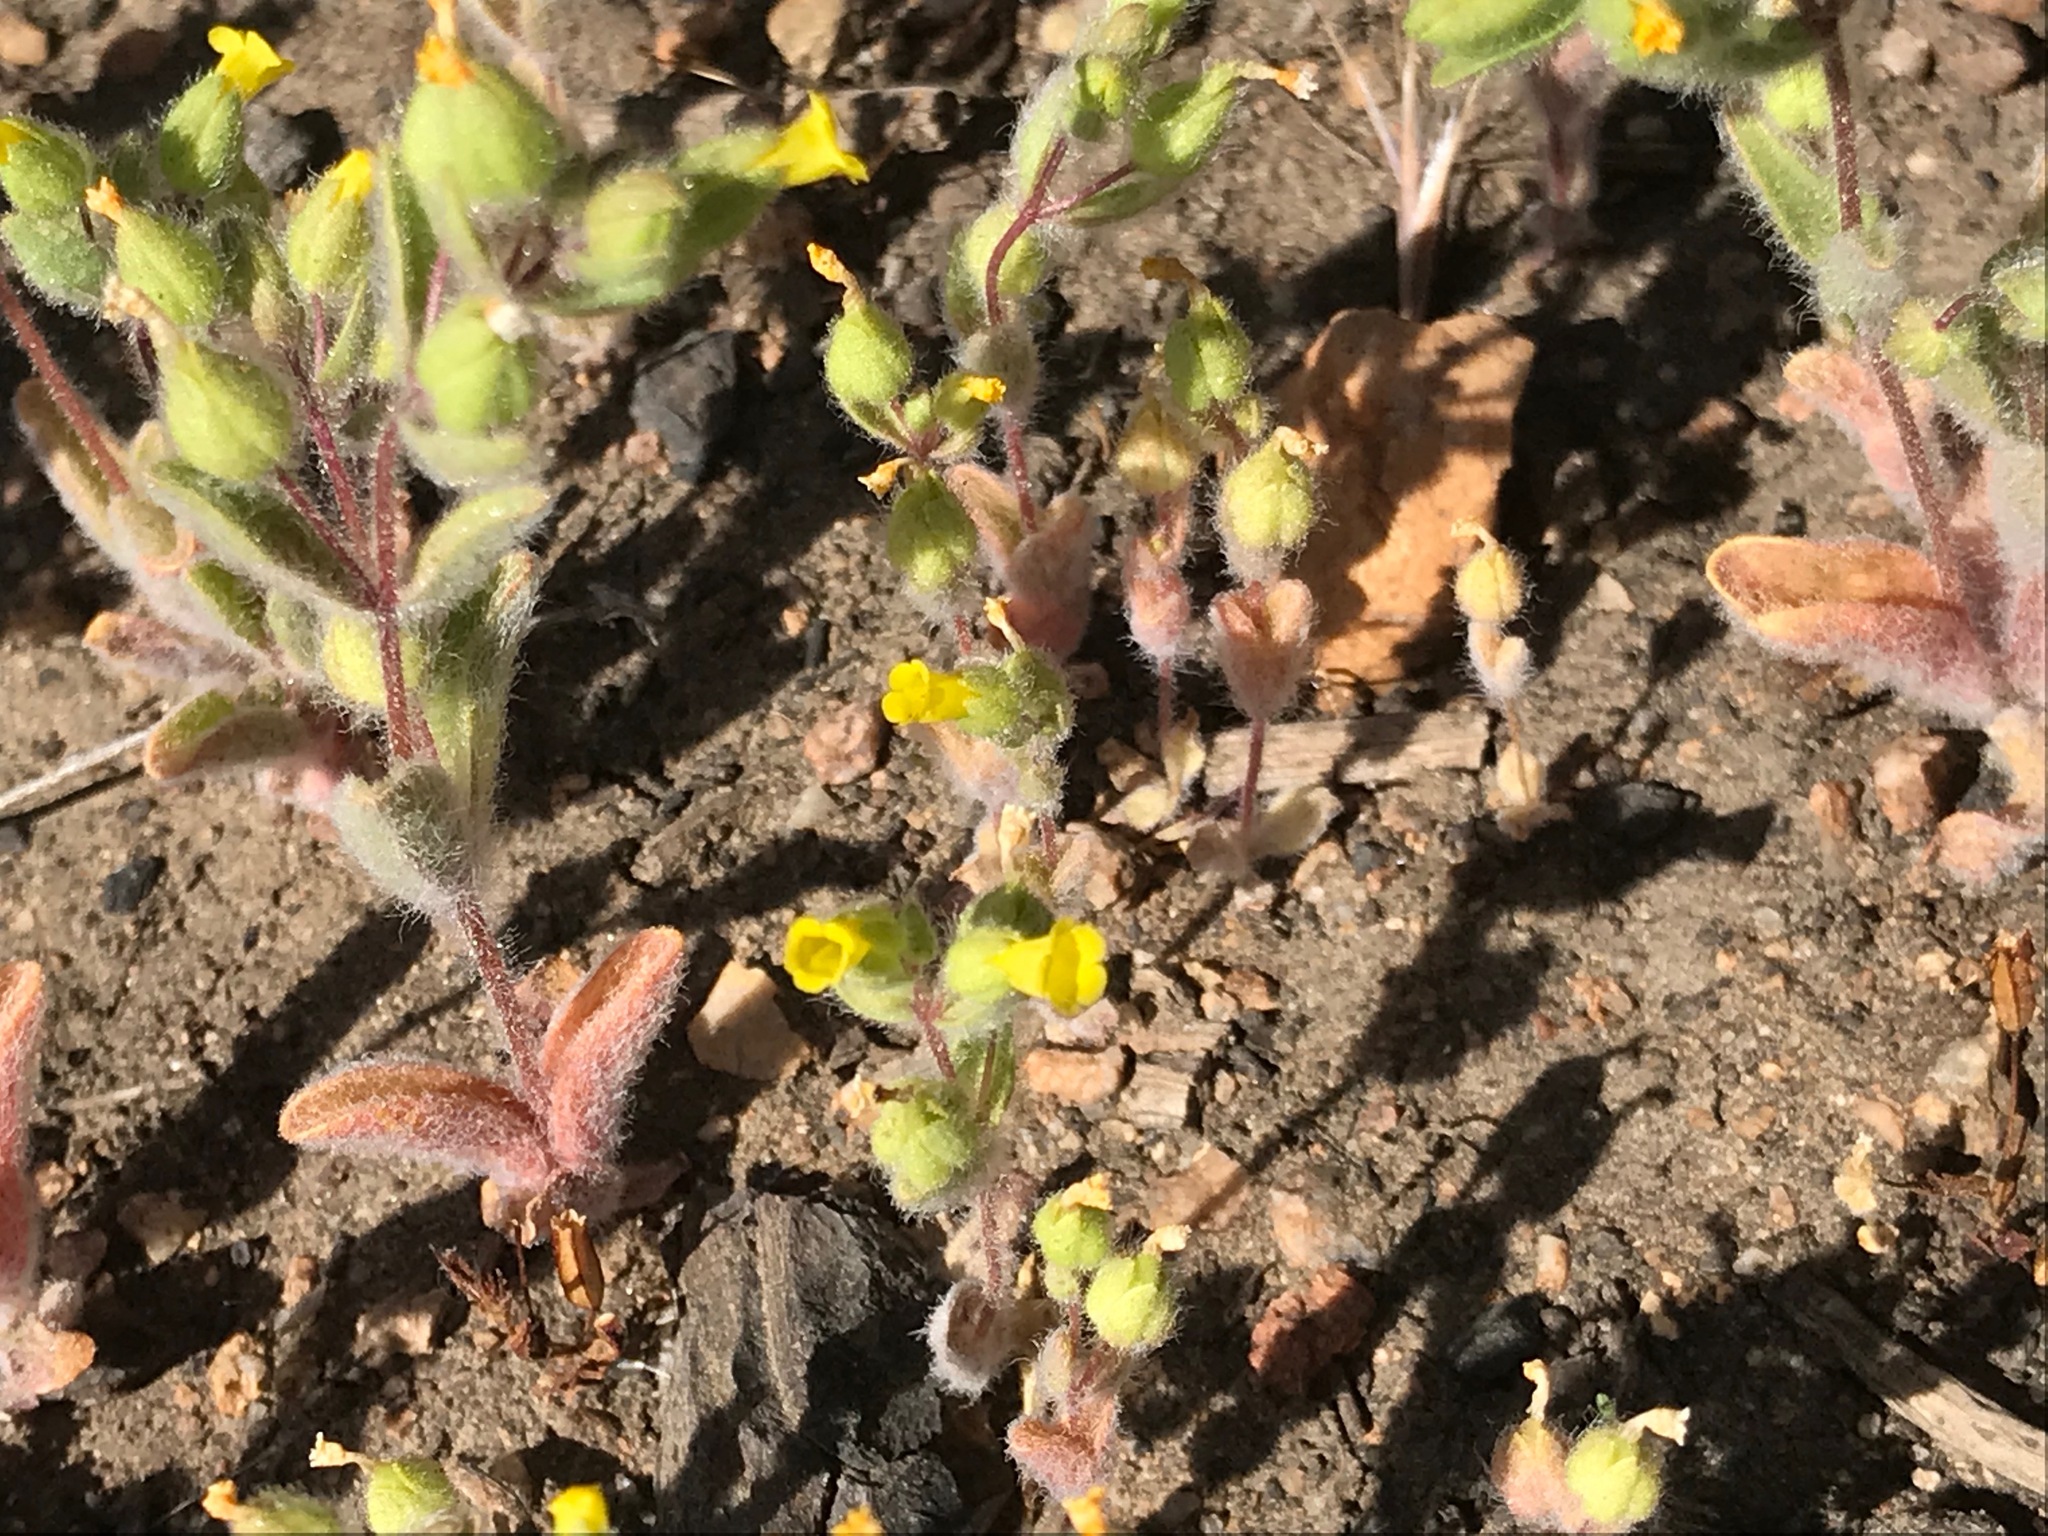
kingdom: Plantae
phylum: Tracheophyta
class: Magnoliopsida
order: Lamiales
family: Phrymaceae
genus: Mimetanthe
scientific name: Mimetanthe pilosa
